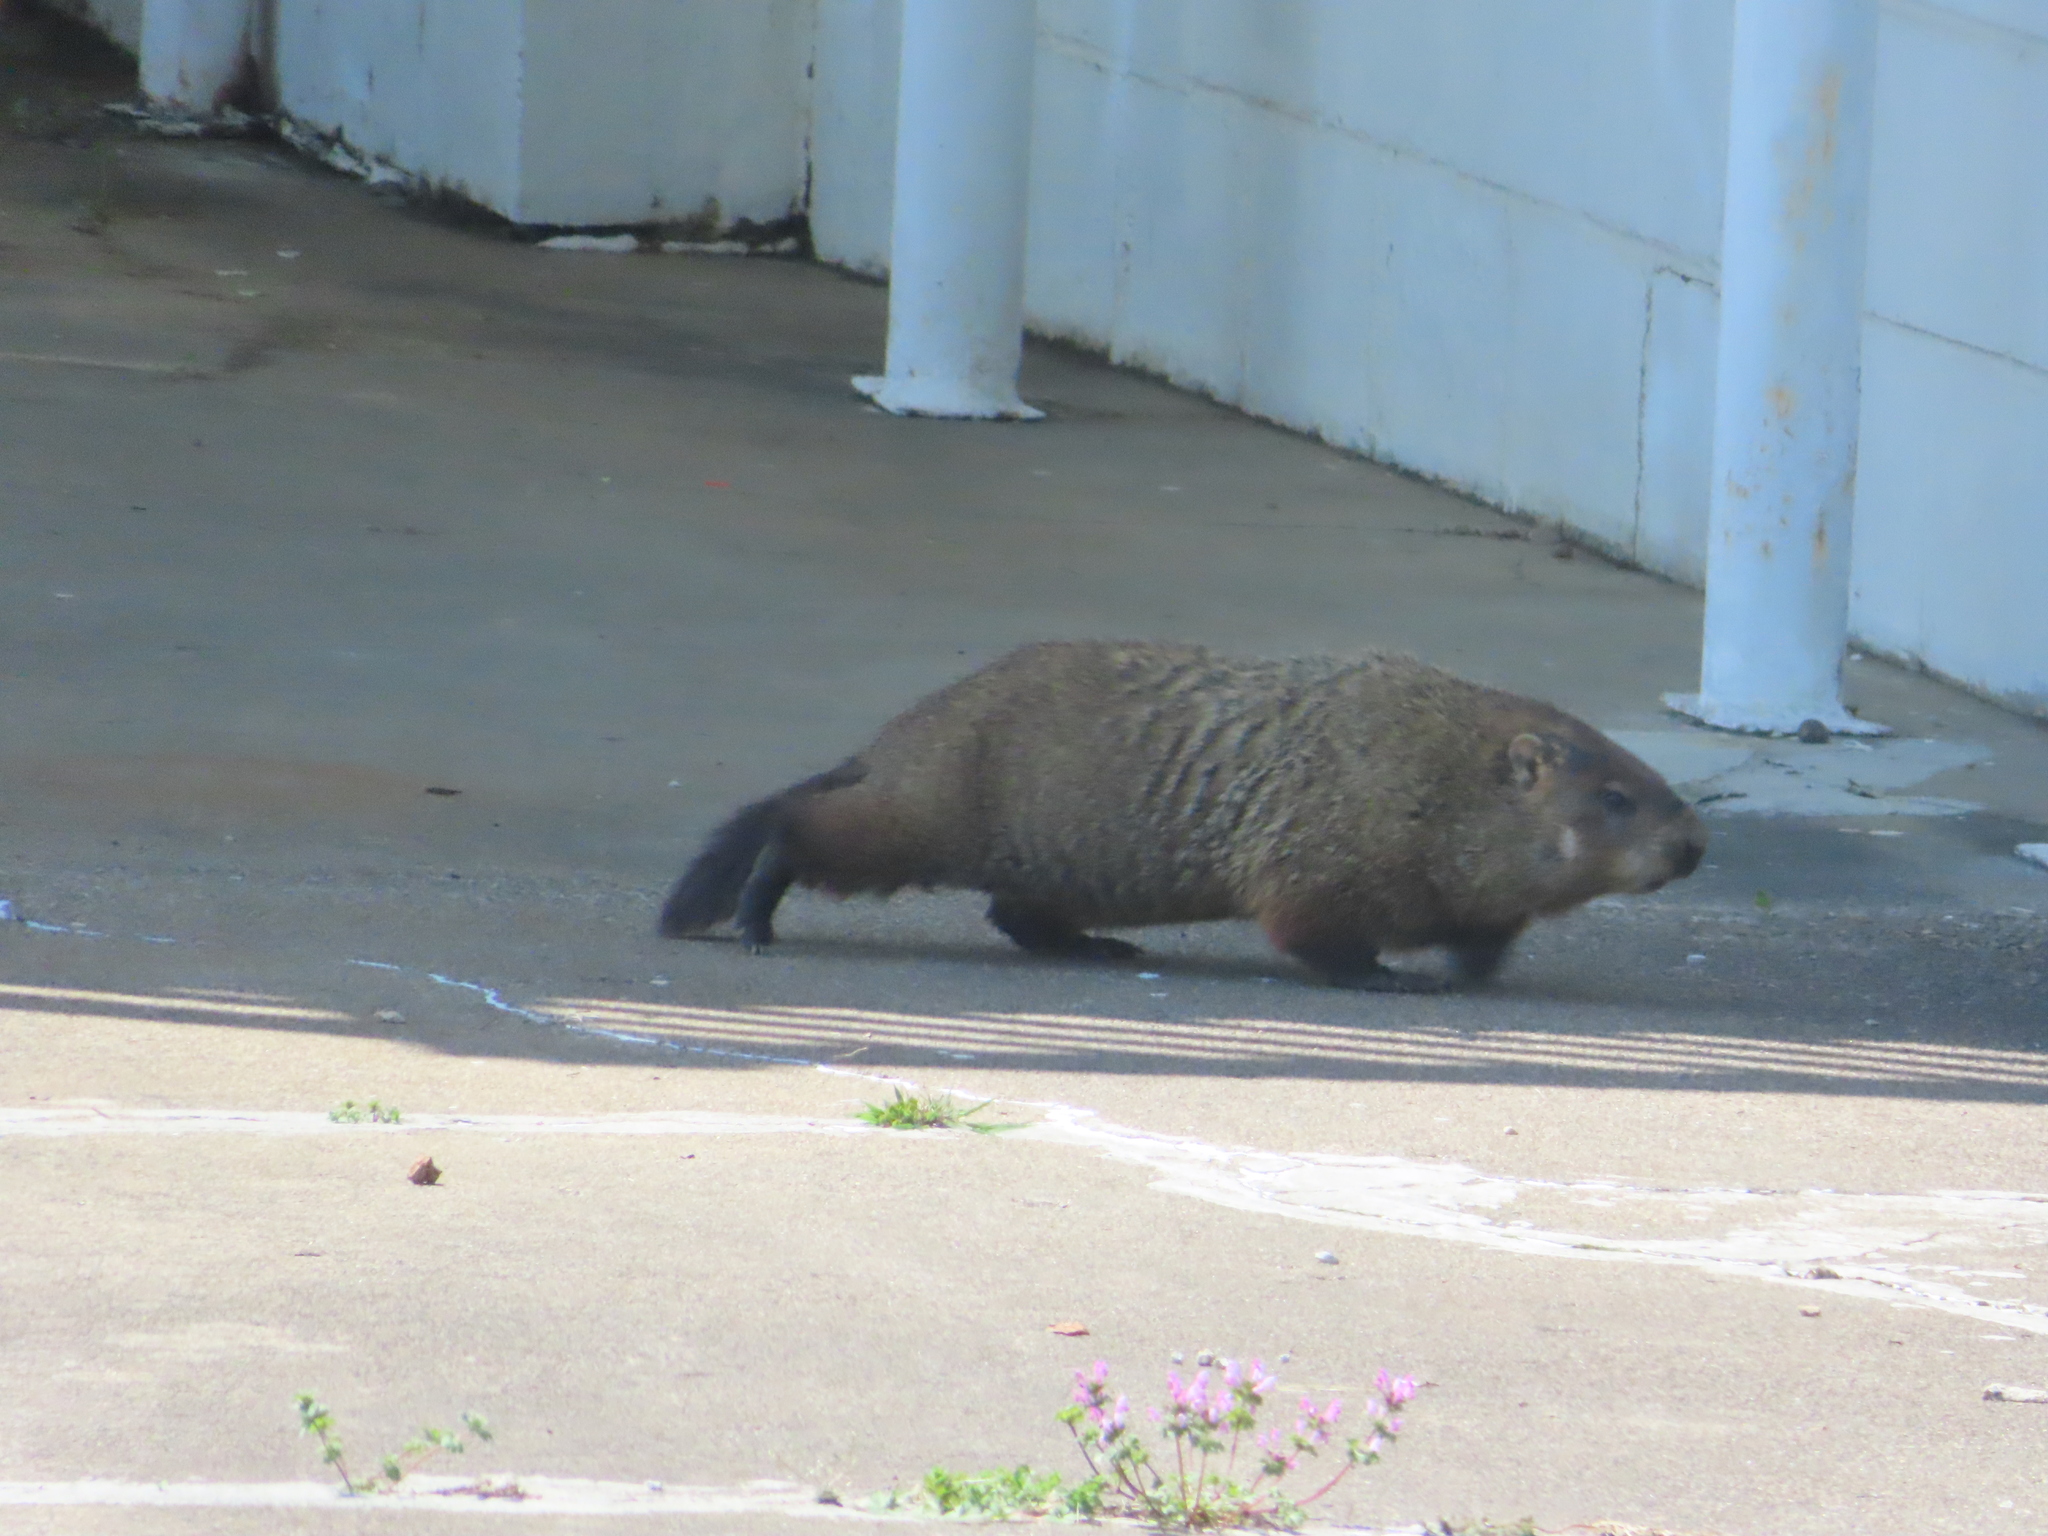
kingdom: Animalia
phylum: Chordata
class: Mammalia
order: Rodentia
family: Sciuridae
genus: Marmota
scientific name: Marmota monax
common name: Groundhog
